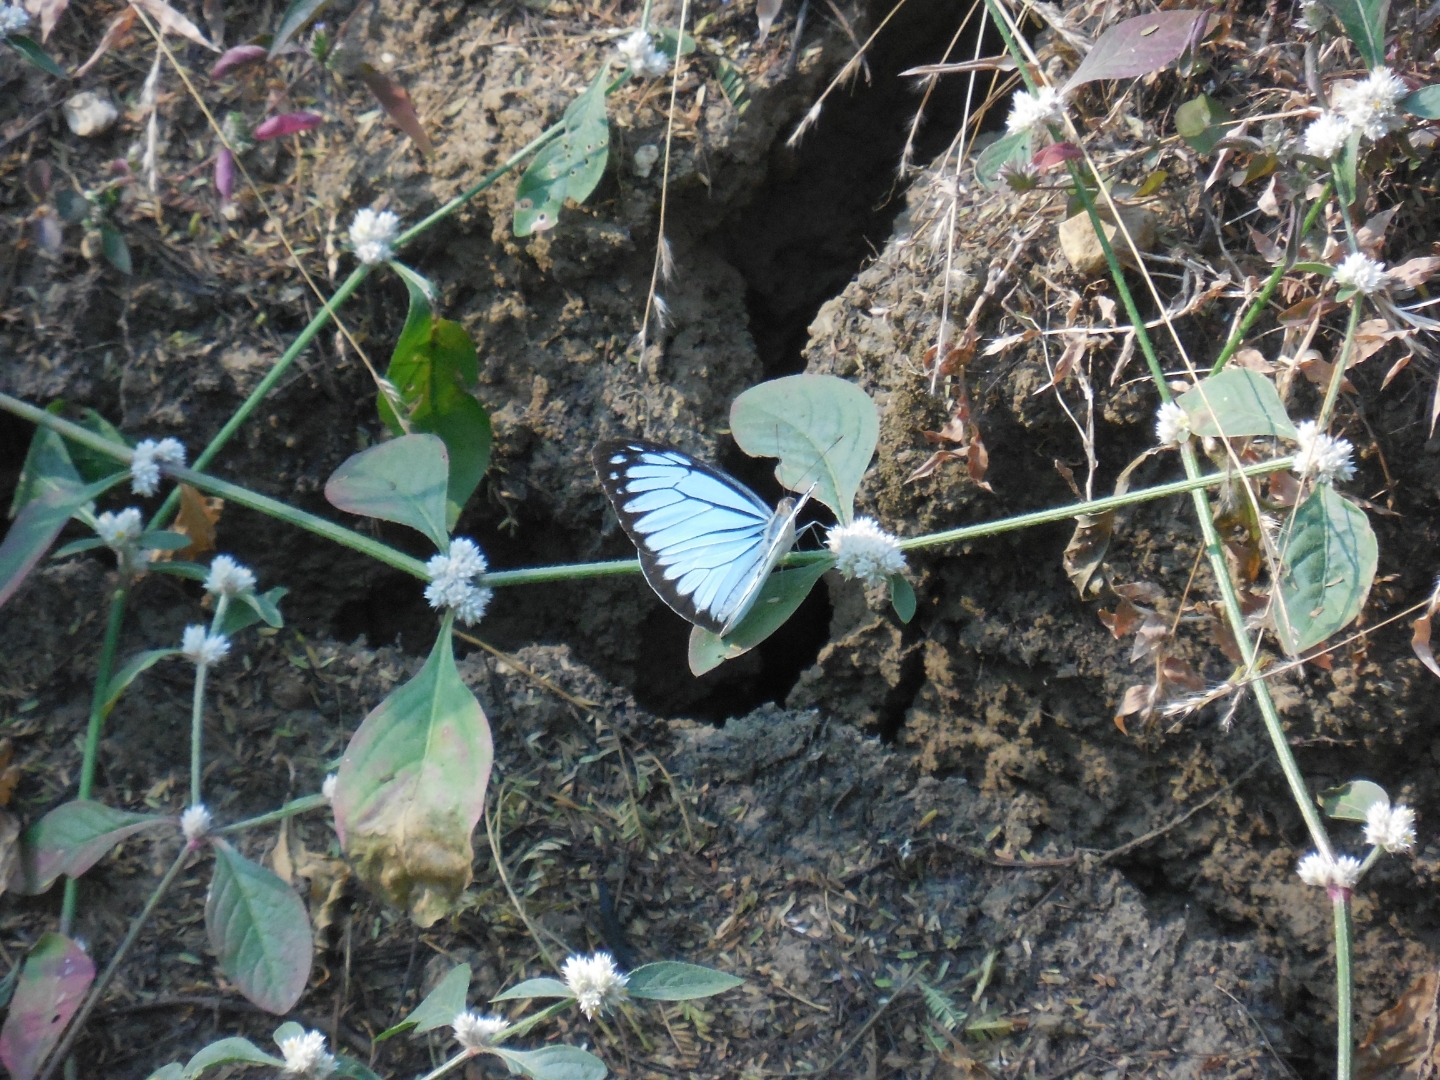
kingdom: Animalia
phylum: Arthropoda
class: Insecta
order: Lepidoptera
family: Pieridae
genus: Pareronia
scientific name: Pareronia hippia
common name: Indian wanderer
